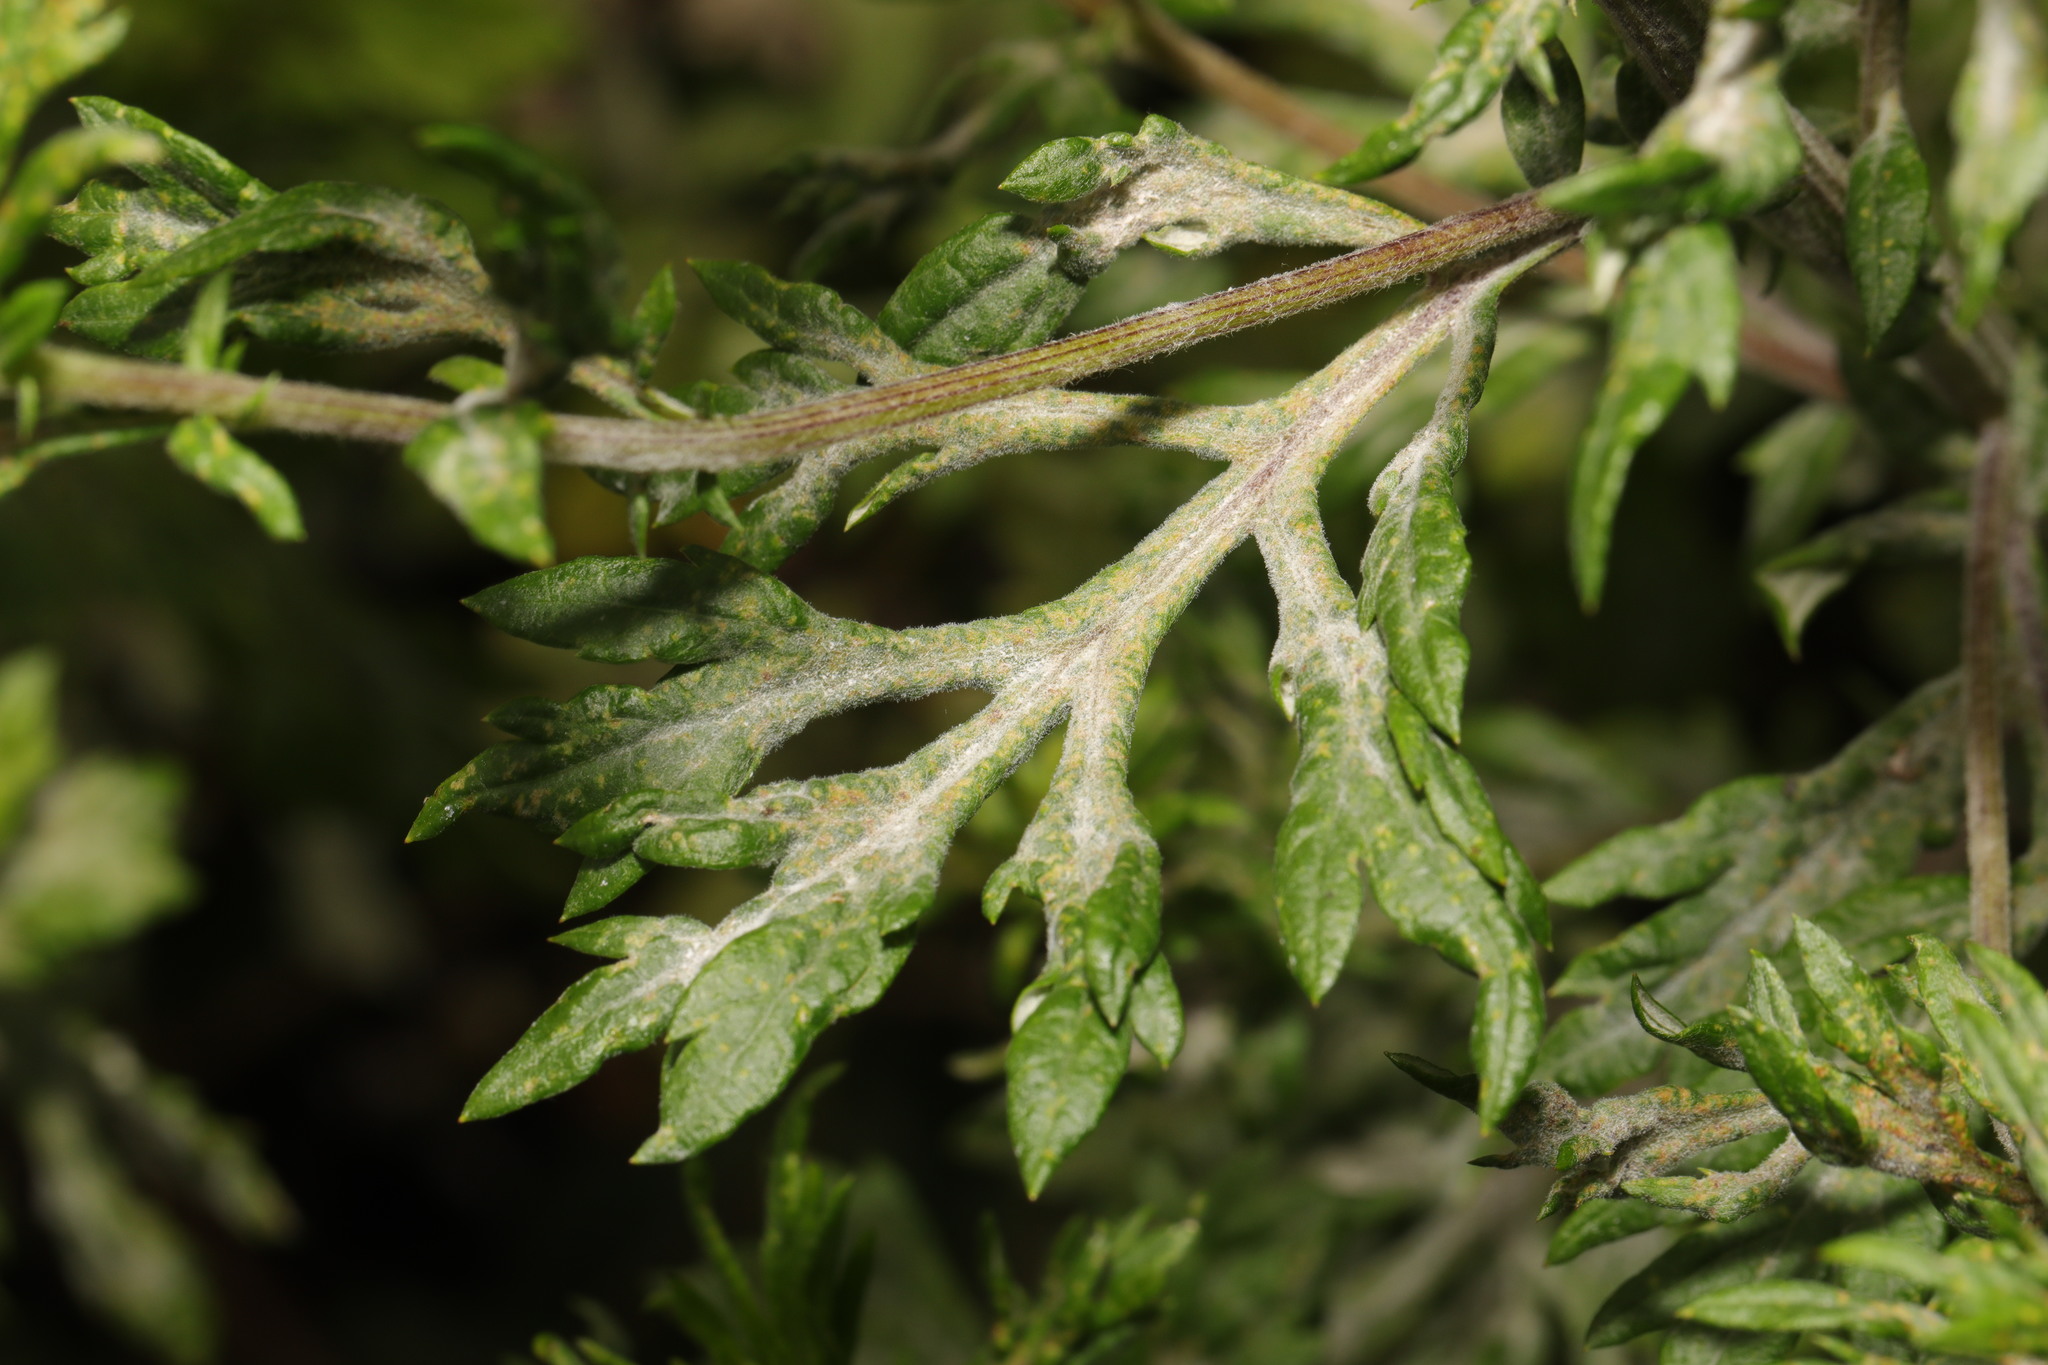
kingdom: Fungi
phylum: Ascomycota
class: Leotiomycetes
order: Helotiales
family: Erysiphaceae
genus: Golovinomyces
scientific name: Golovinomyces artemisiae
